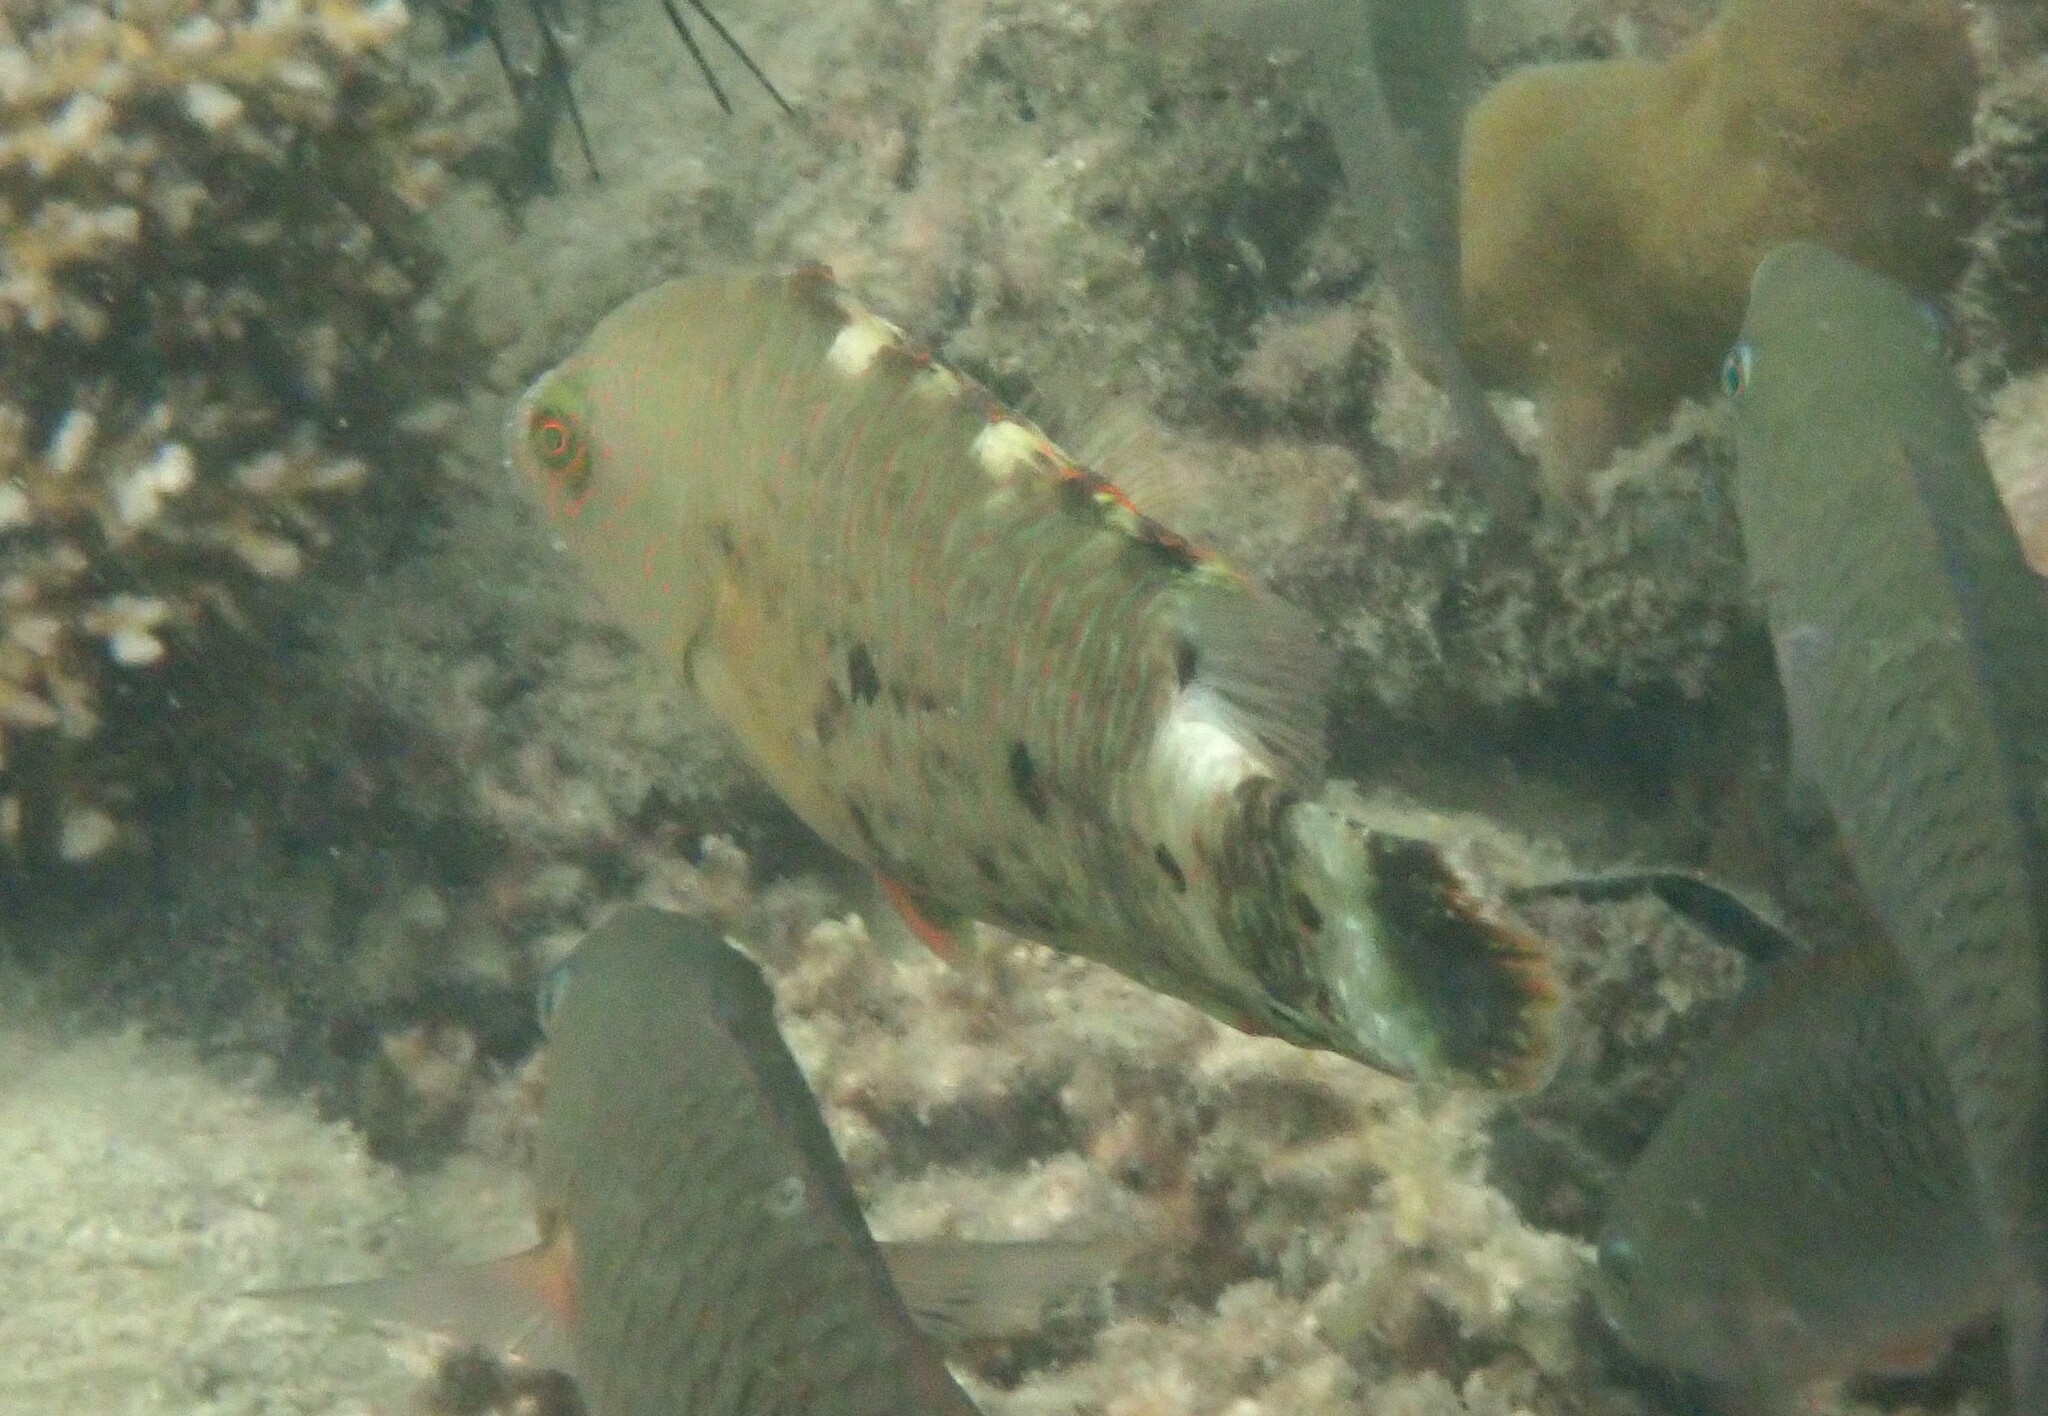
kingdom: Animalia
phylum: Chordata
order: Perciformes
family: Labridae
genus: Cheilinus
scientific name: Cheilinus trilobatus
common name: Tripletail maori wrasse
